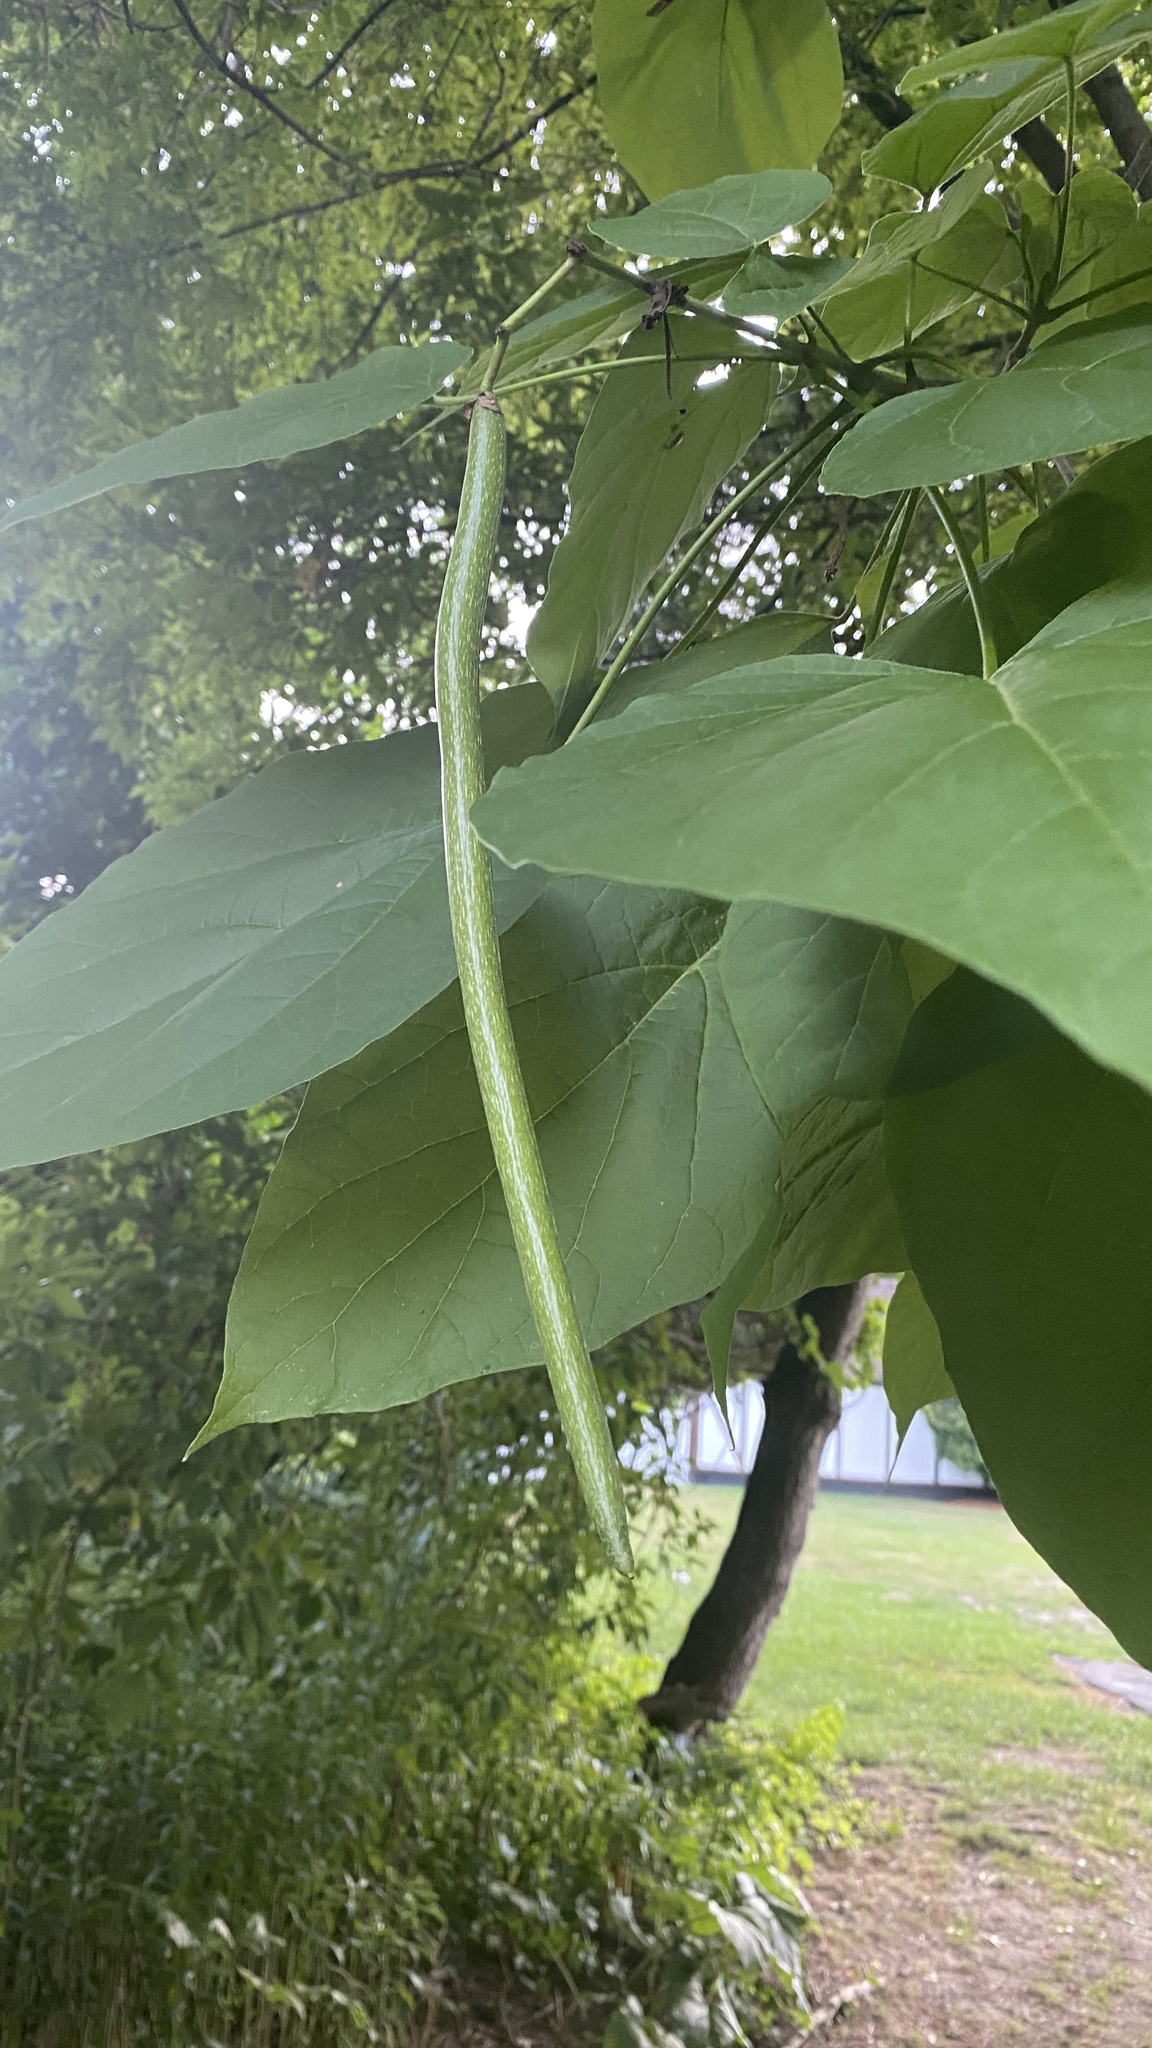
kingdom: Plantae
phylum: Tracheophyta
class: Magnoliopsida
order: Lamiales
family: Bignoniaceae
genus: Catalpa
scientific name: Catalpa speciosa
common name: Northern catalpa
